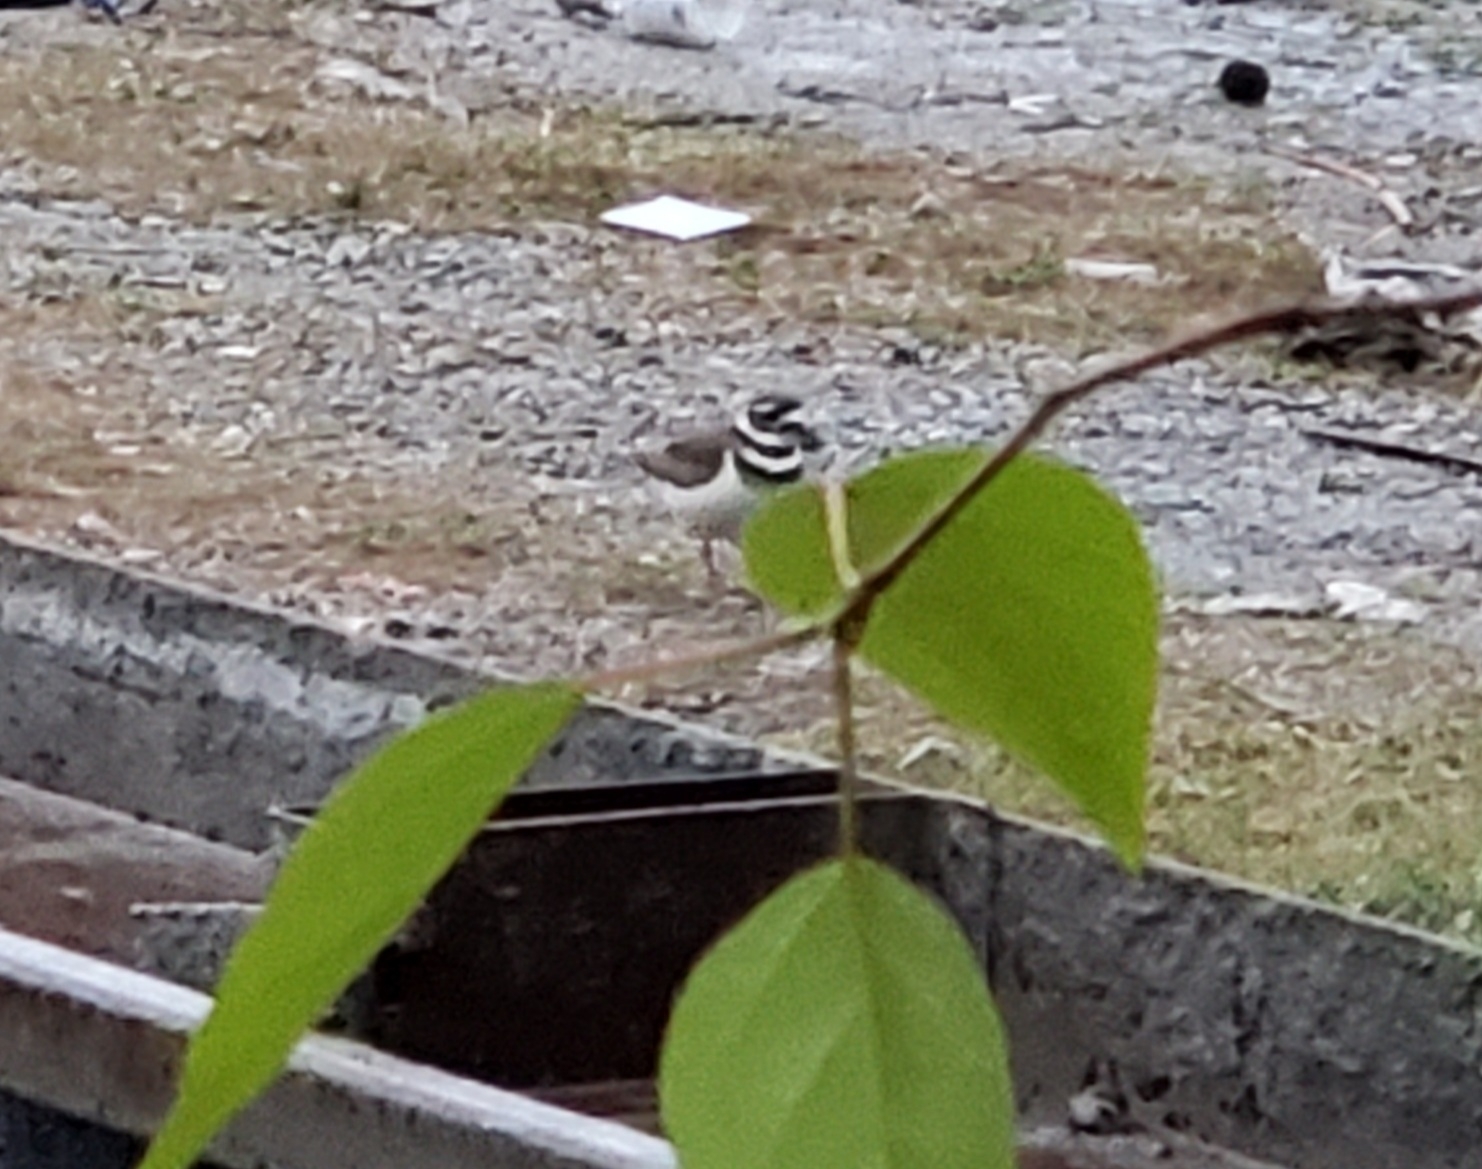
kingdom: Animalia
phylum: Chordata
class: Aves
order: Charadriiformes
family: Charadriidae
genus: Charadrius
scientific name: Charadrius vociferus
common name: Killdeer
